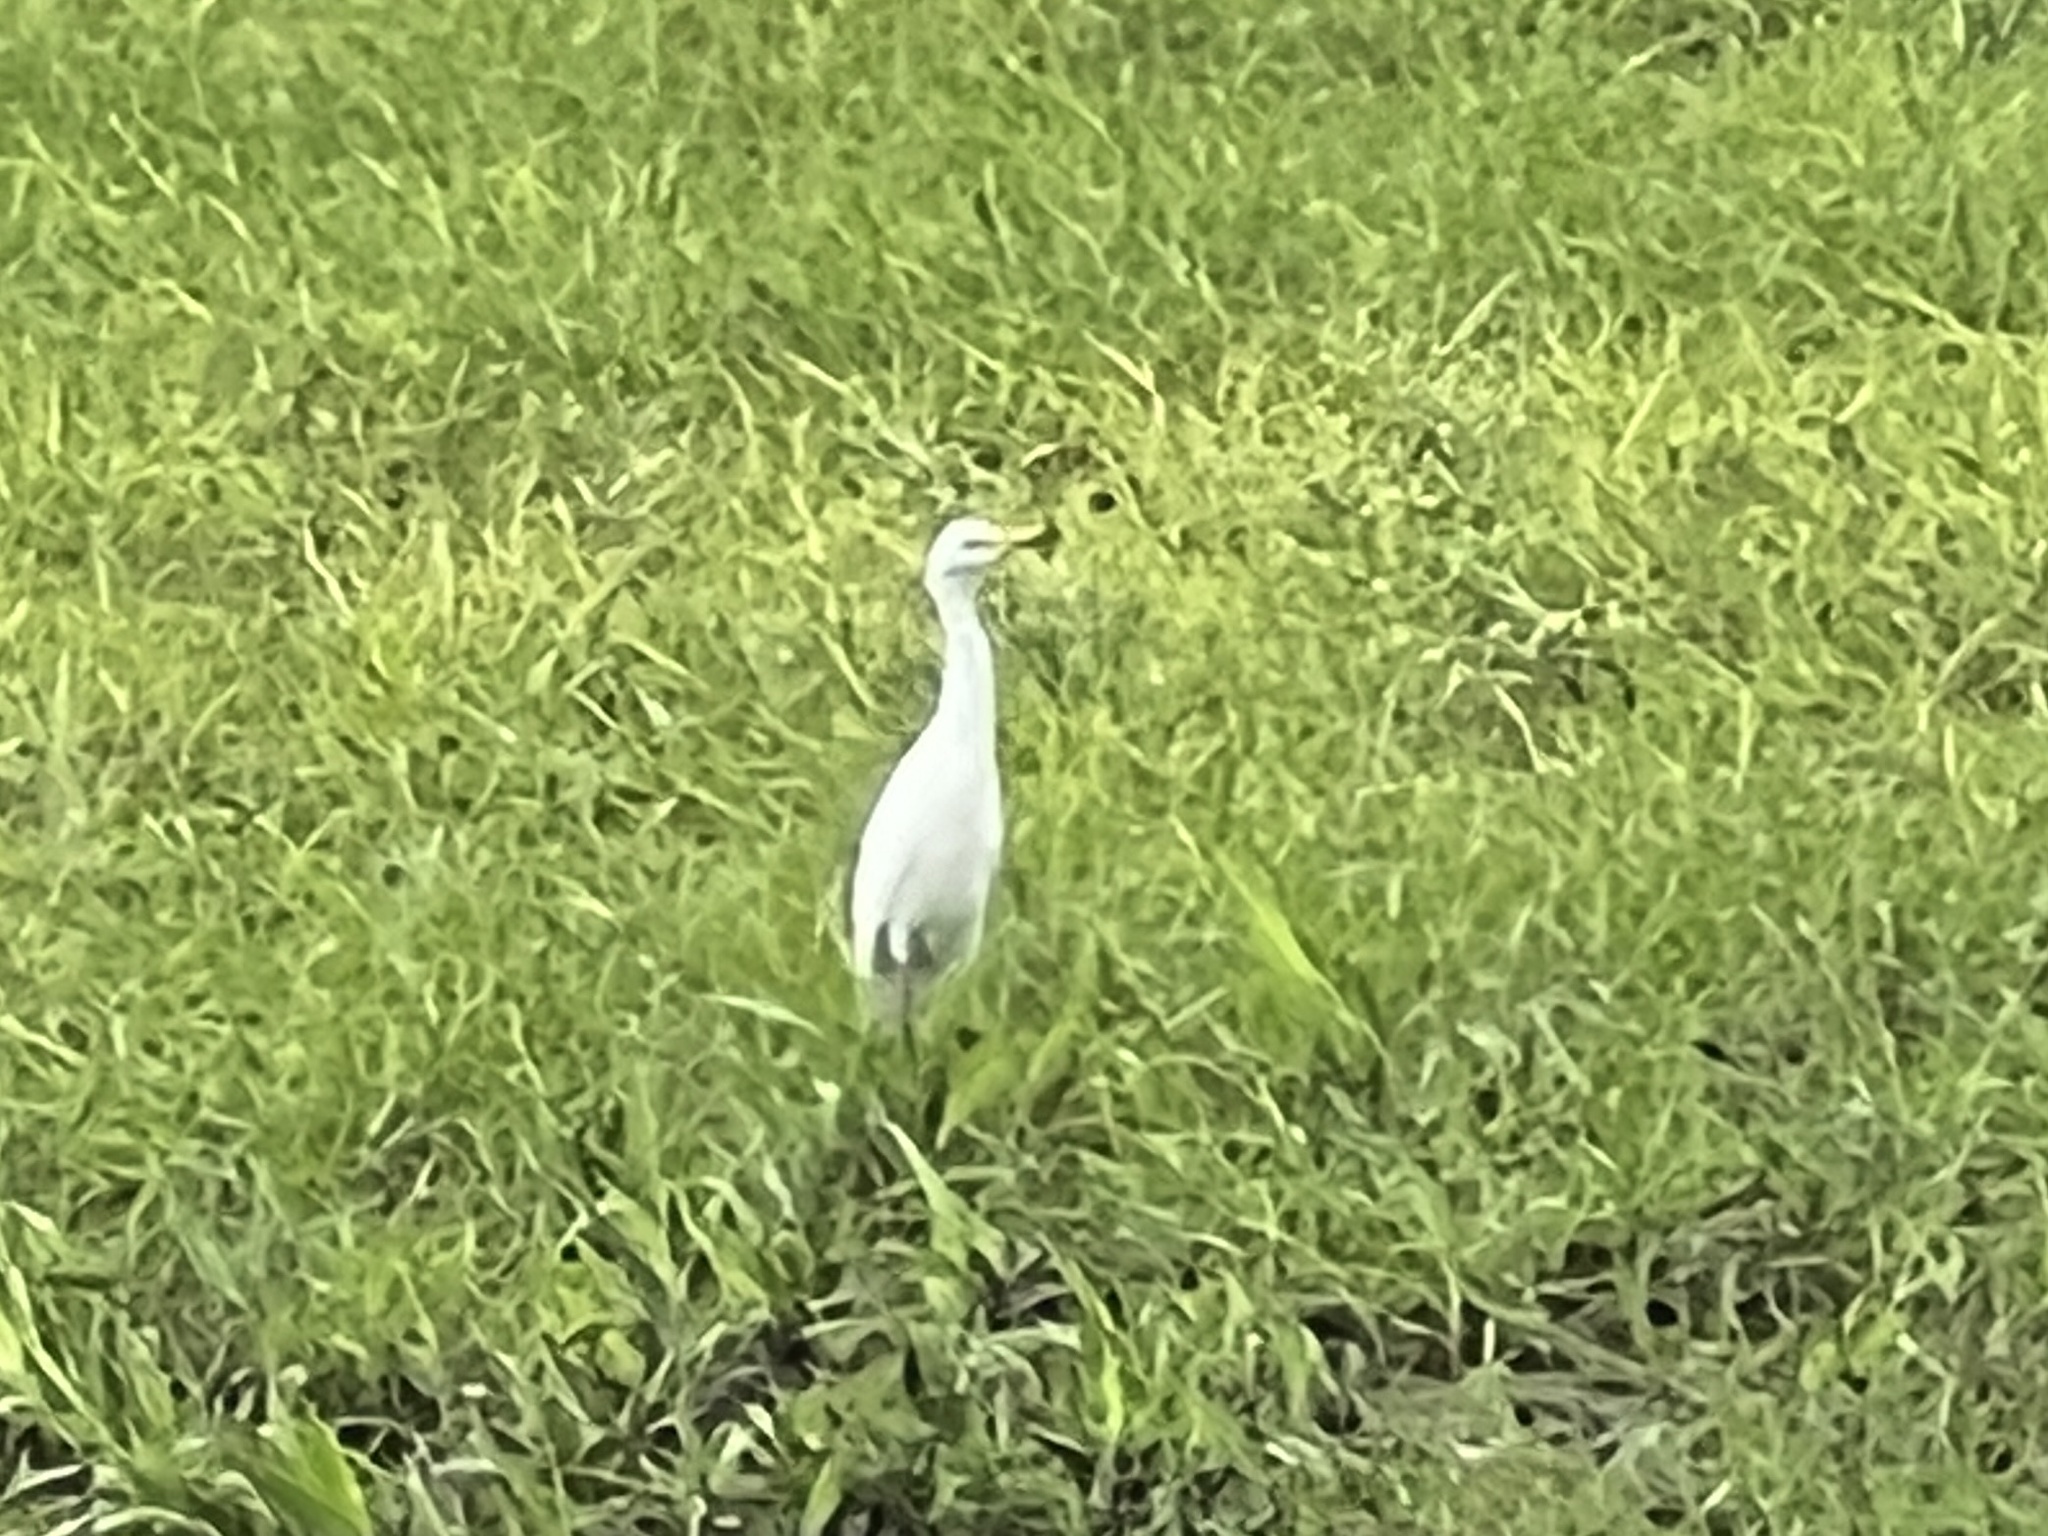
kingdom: Animalia
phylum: Chordata
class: Aves
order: Pelecaniformes
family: Ardeidae
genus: Bubulcus
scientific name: Bubulcus ibis
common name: Cattle egret
